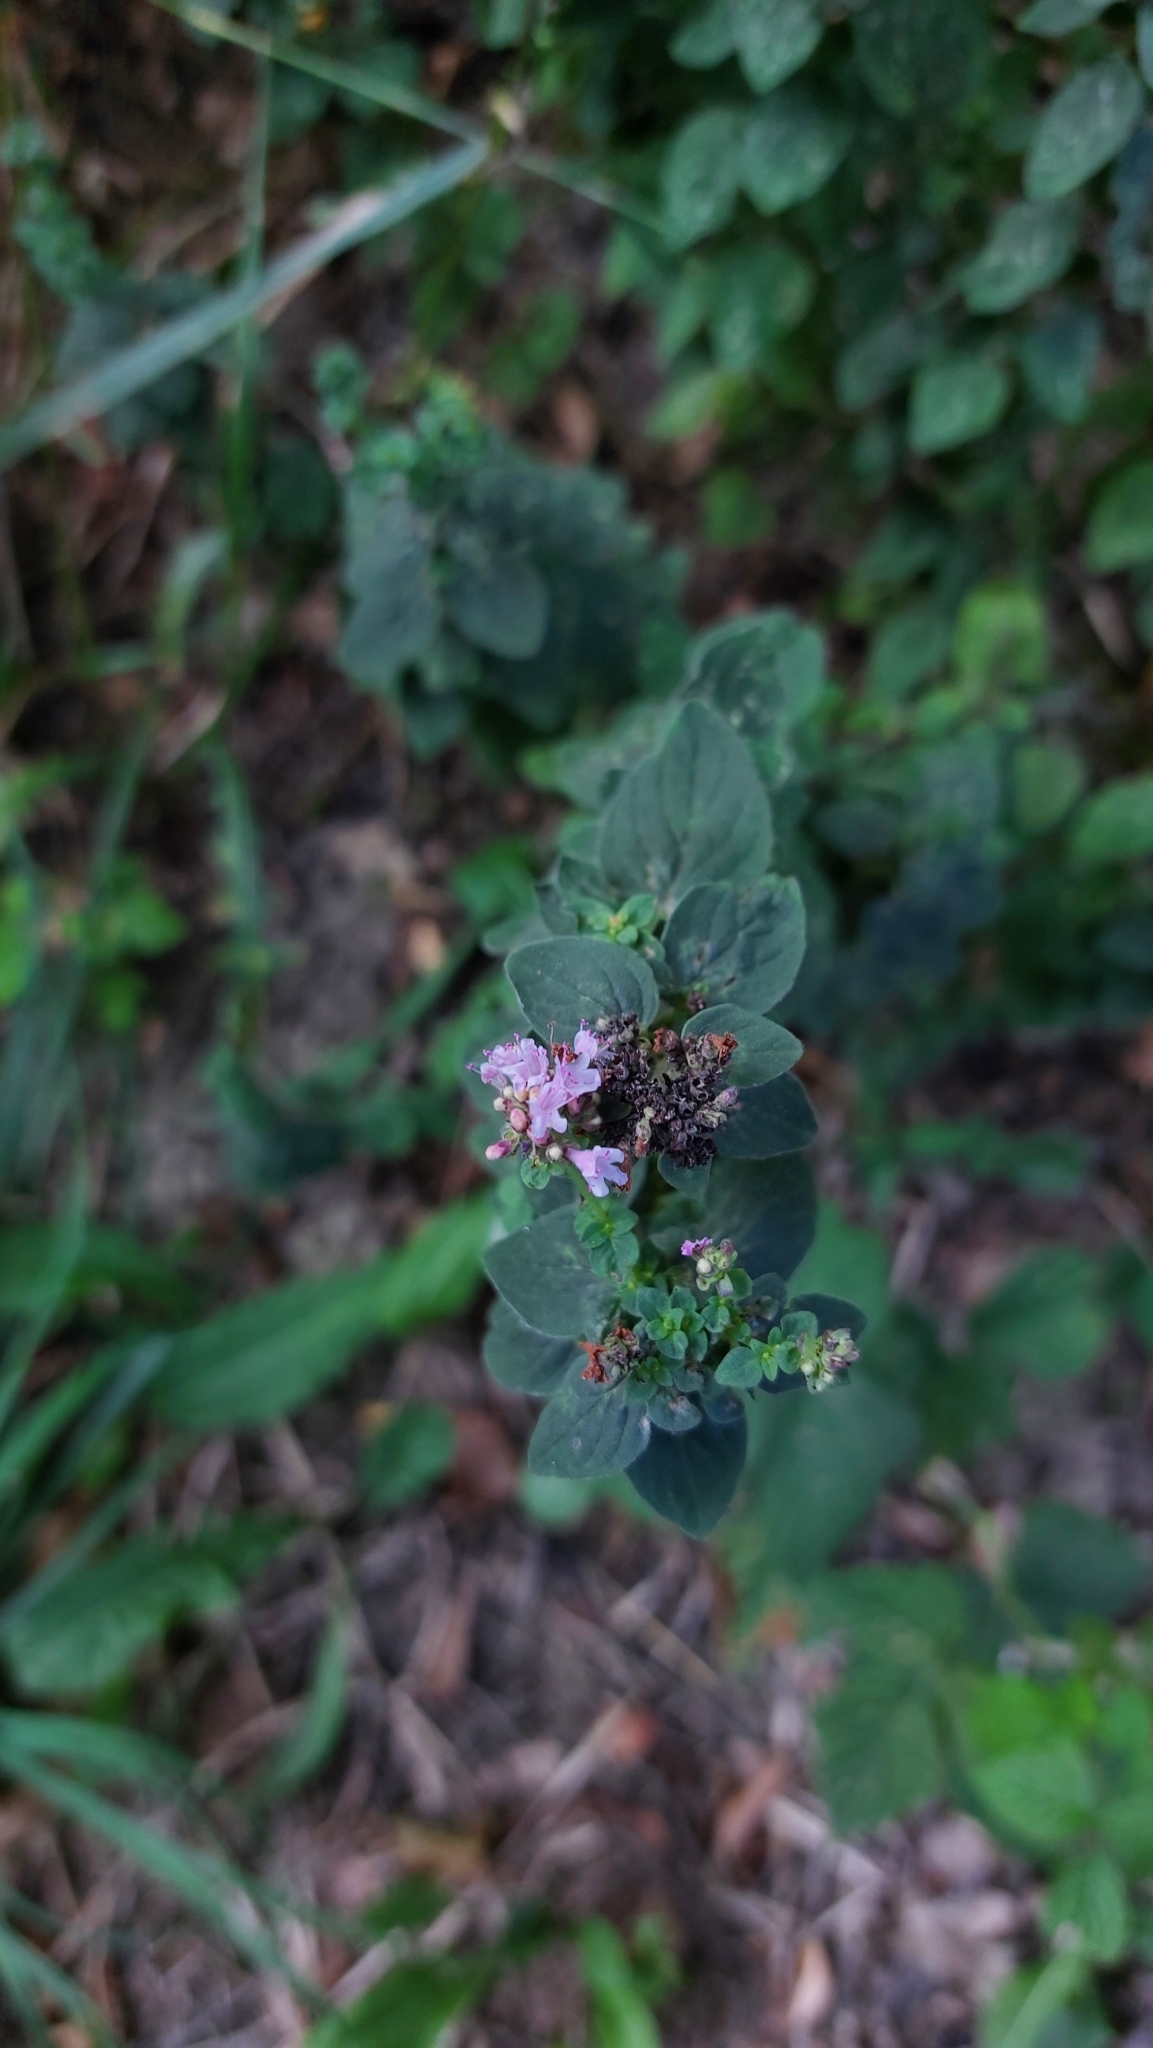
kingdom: Plantae
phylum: Tracheophyta
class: Magnoliopsida
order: Lamiales
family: Lamiaceae
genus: Origanum
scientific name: Origanum vulgare
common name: Wild marjoram
